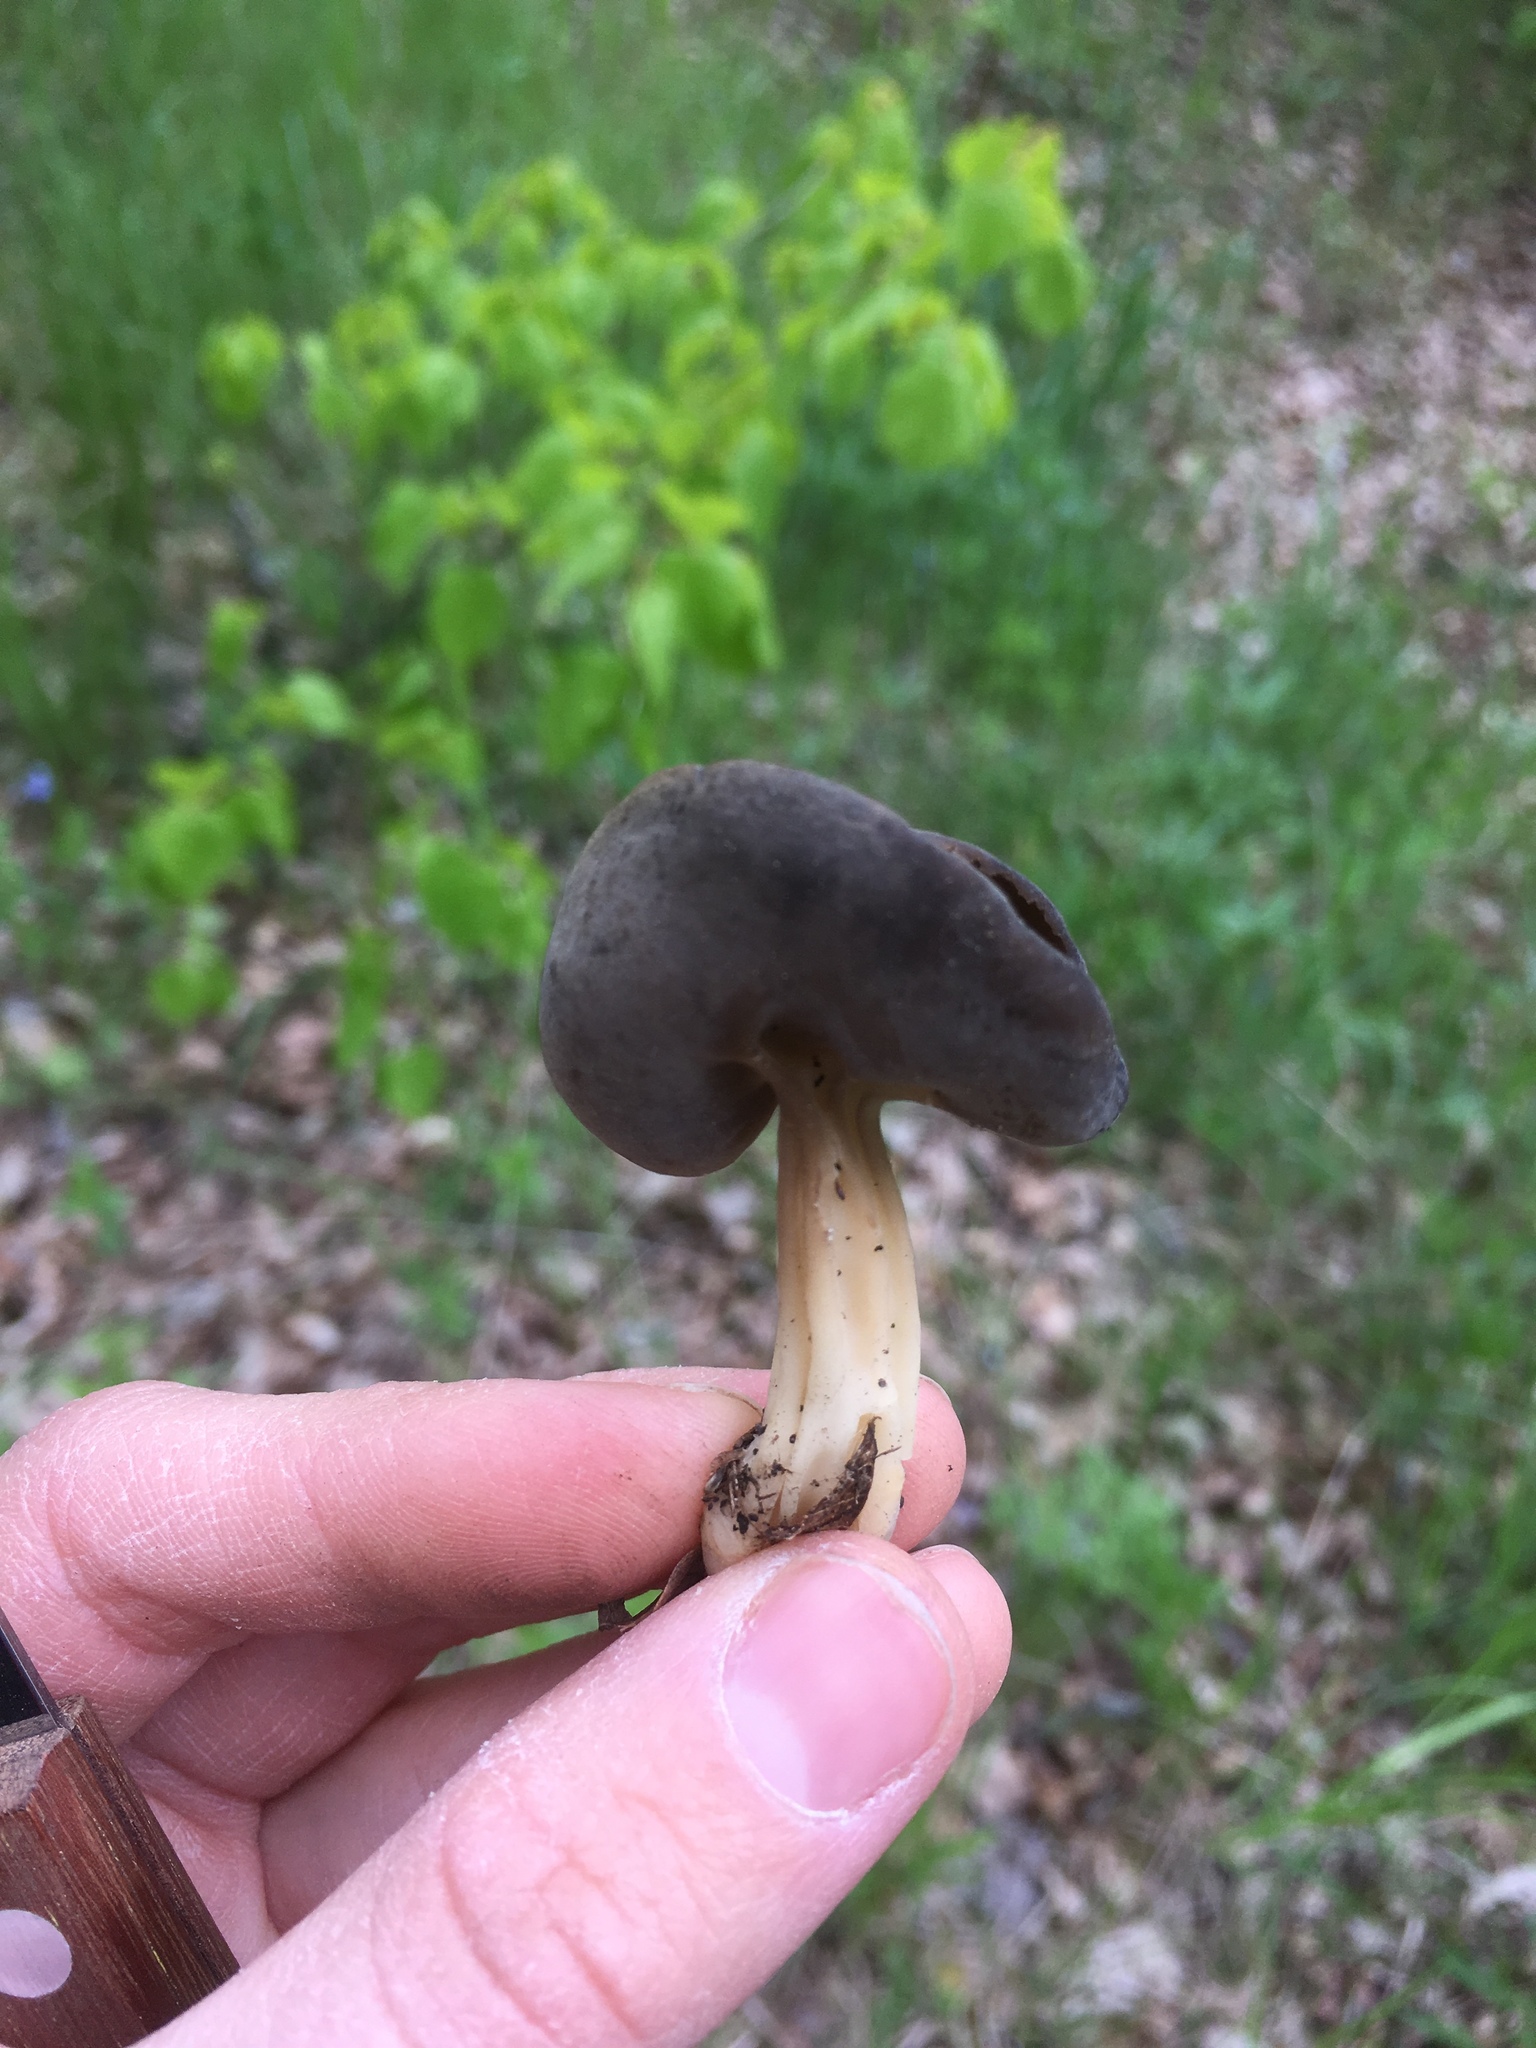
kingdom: Fungi
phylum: Ascomycota
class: Pezizomycetes
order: Pezizales
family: Helvellaceae
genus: Helvella
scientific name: Helvella solitaria
